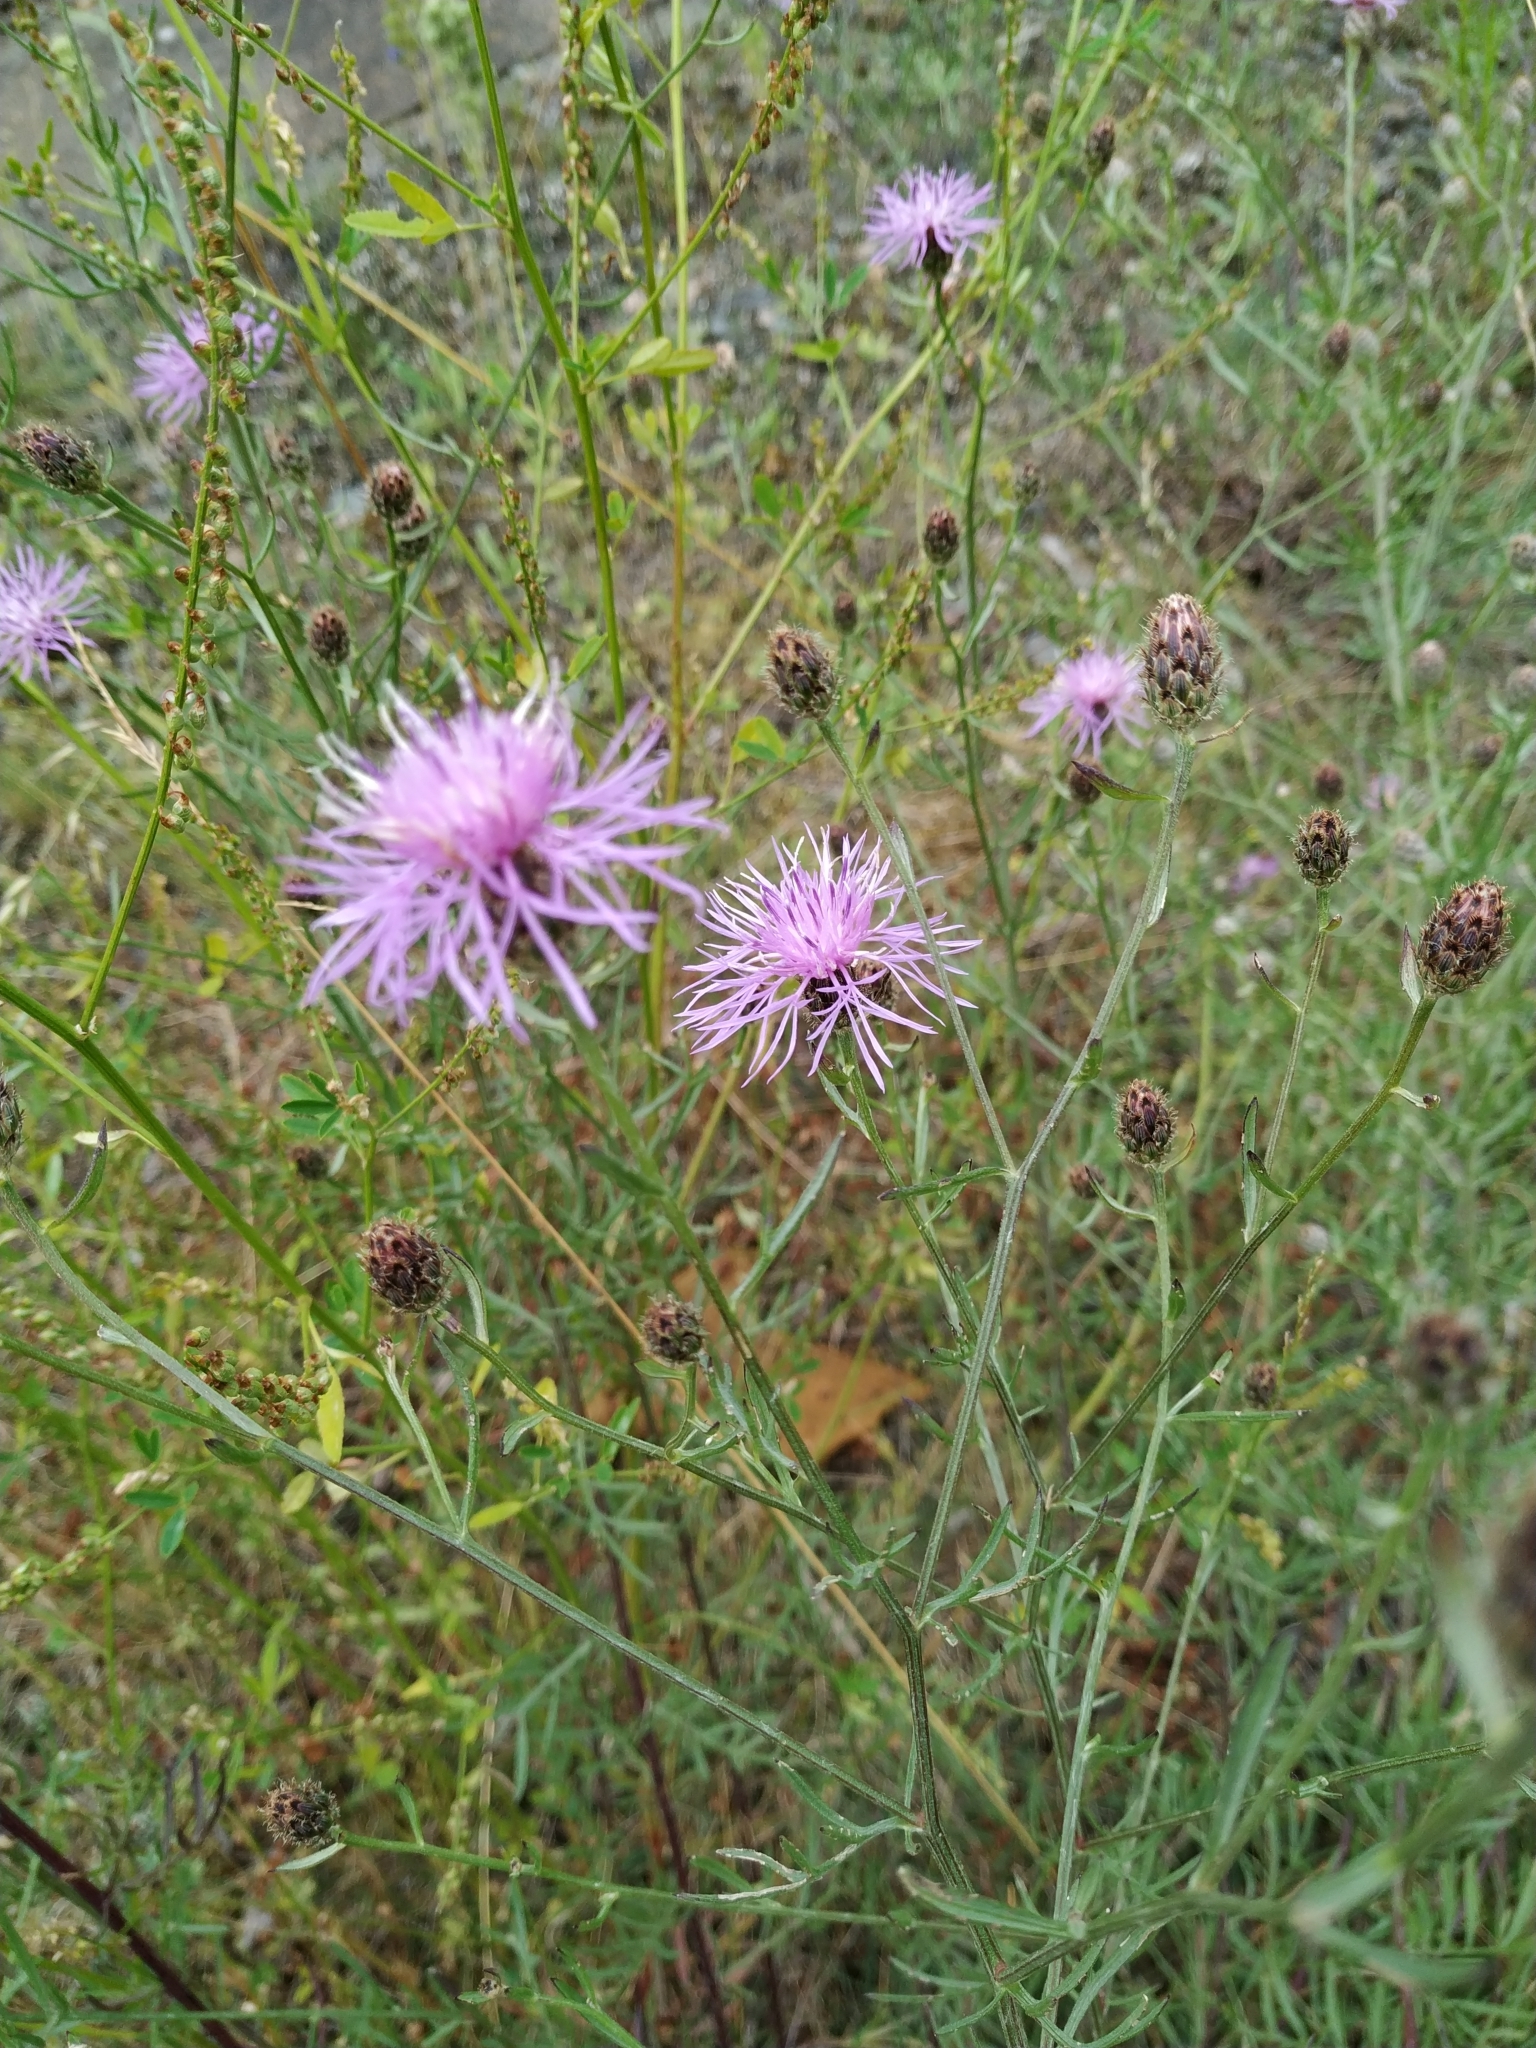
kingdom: Plantae
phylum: Tracheophyta
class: Magnoliopsida
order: Asterales
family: Asteraceae
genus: Centaurea
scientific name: Centaurea stoebe
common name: Spotted knapweed
